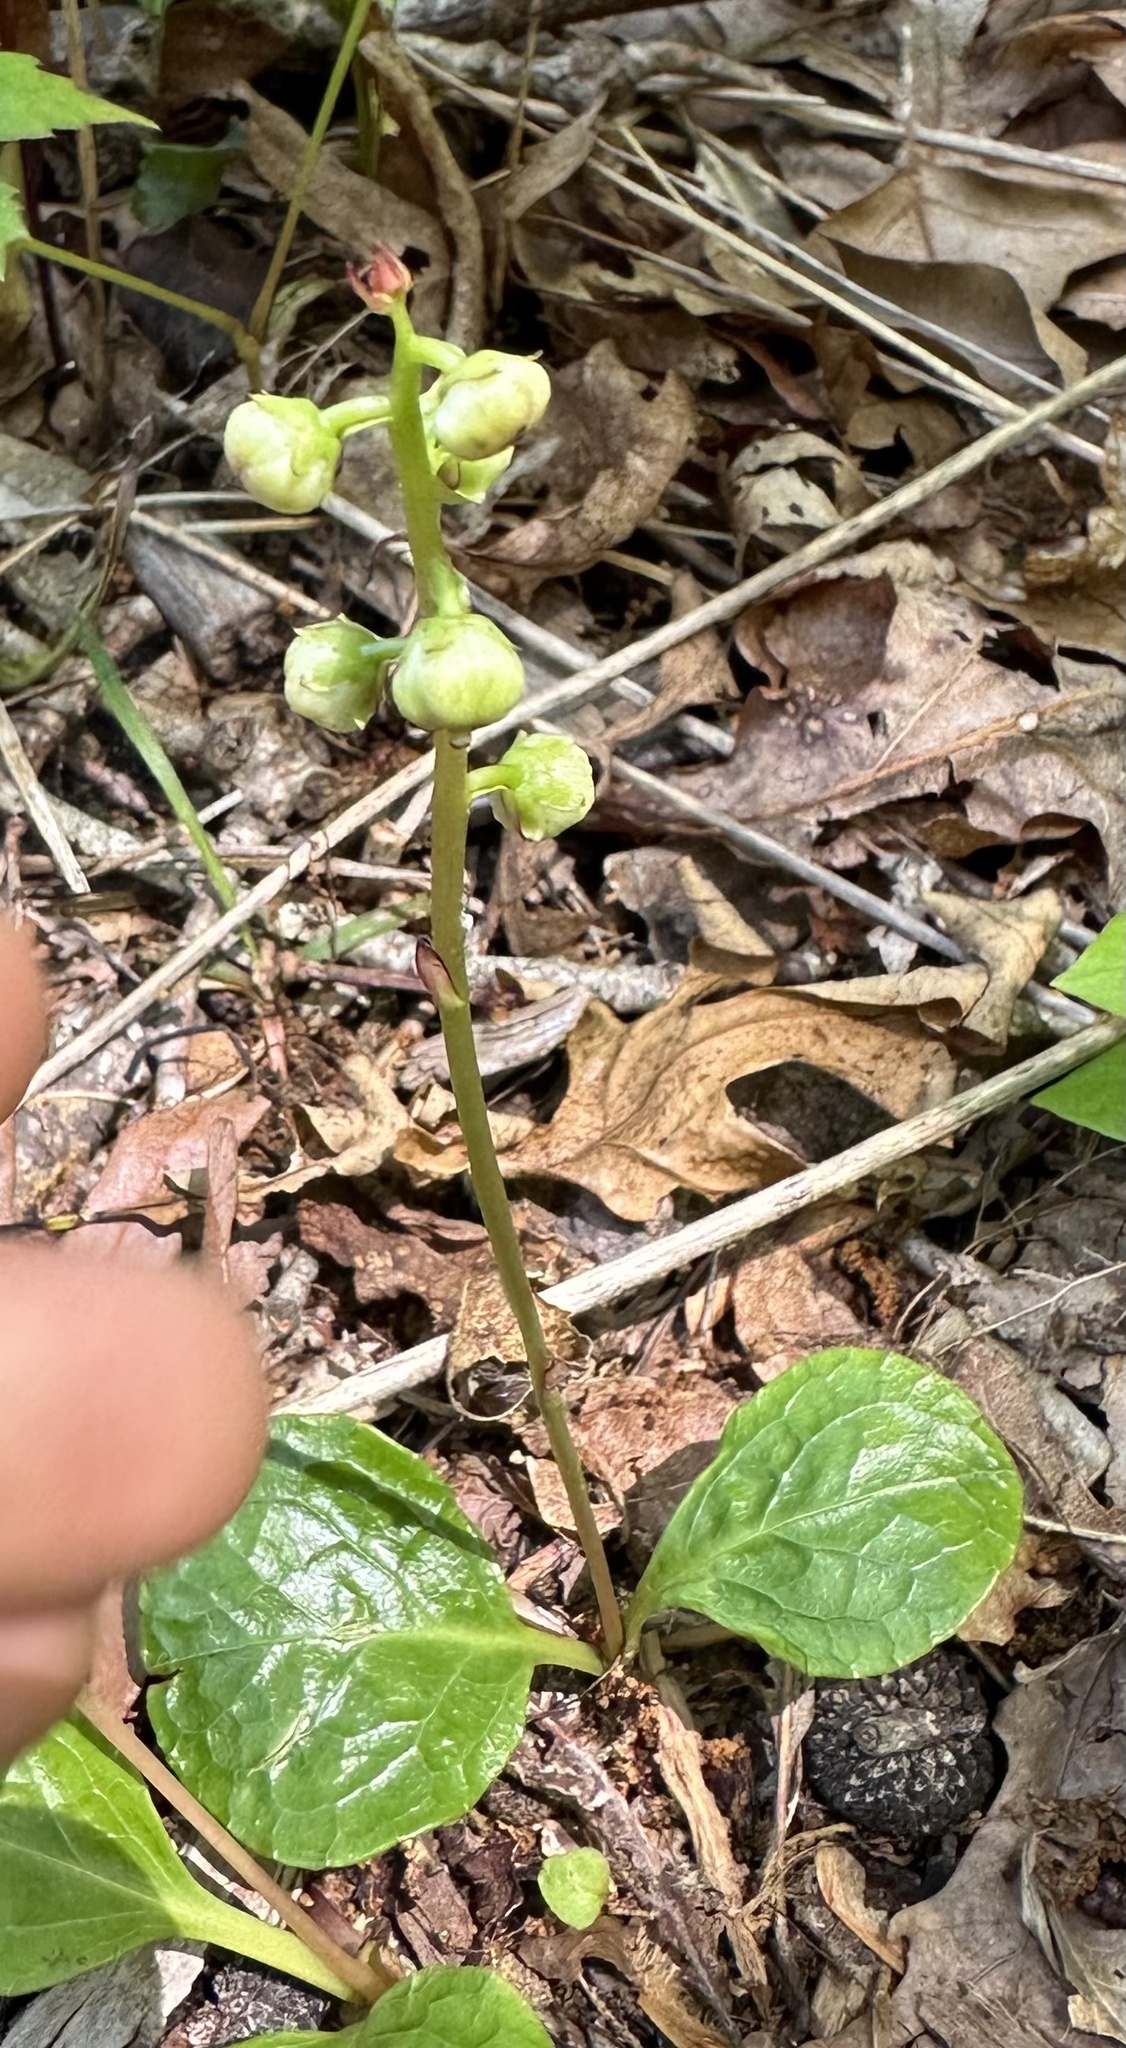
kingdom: Plantae
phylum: Tracheophyta
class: Magnoliopsida
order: Ericales
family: Ericaceae
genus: Pyrola
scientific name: Pyrola americana
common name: American wintergreen
